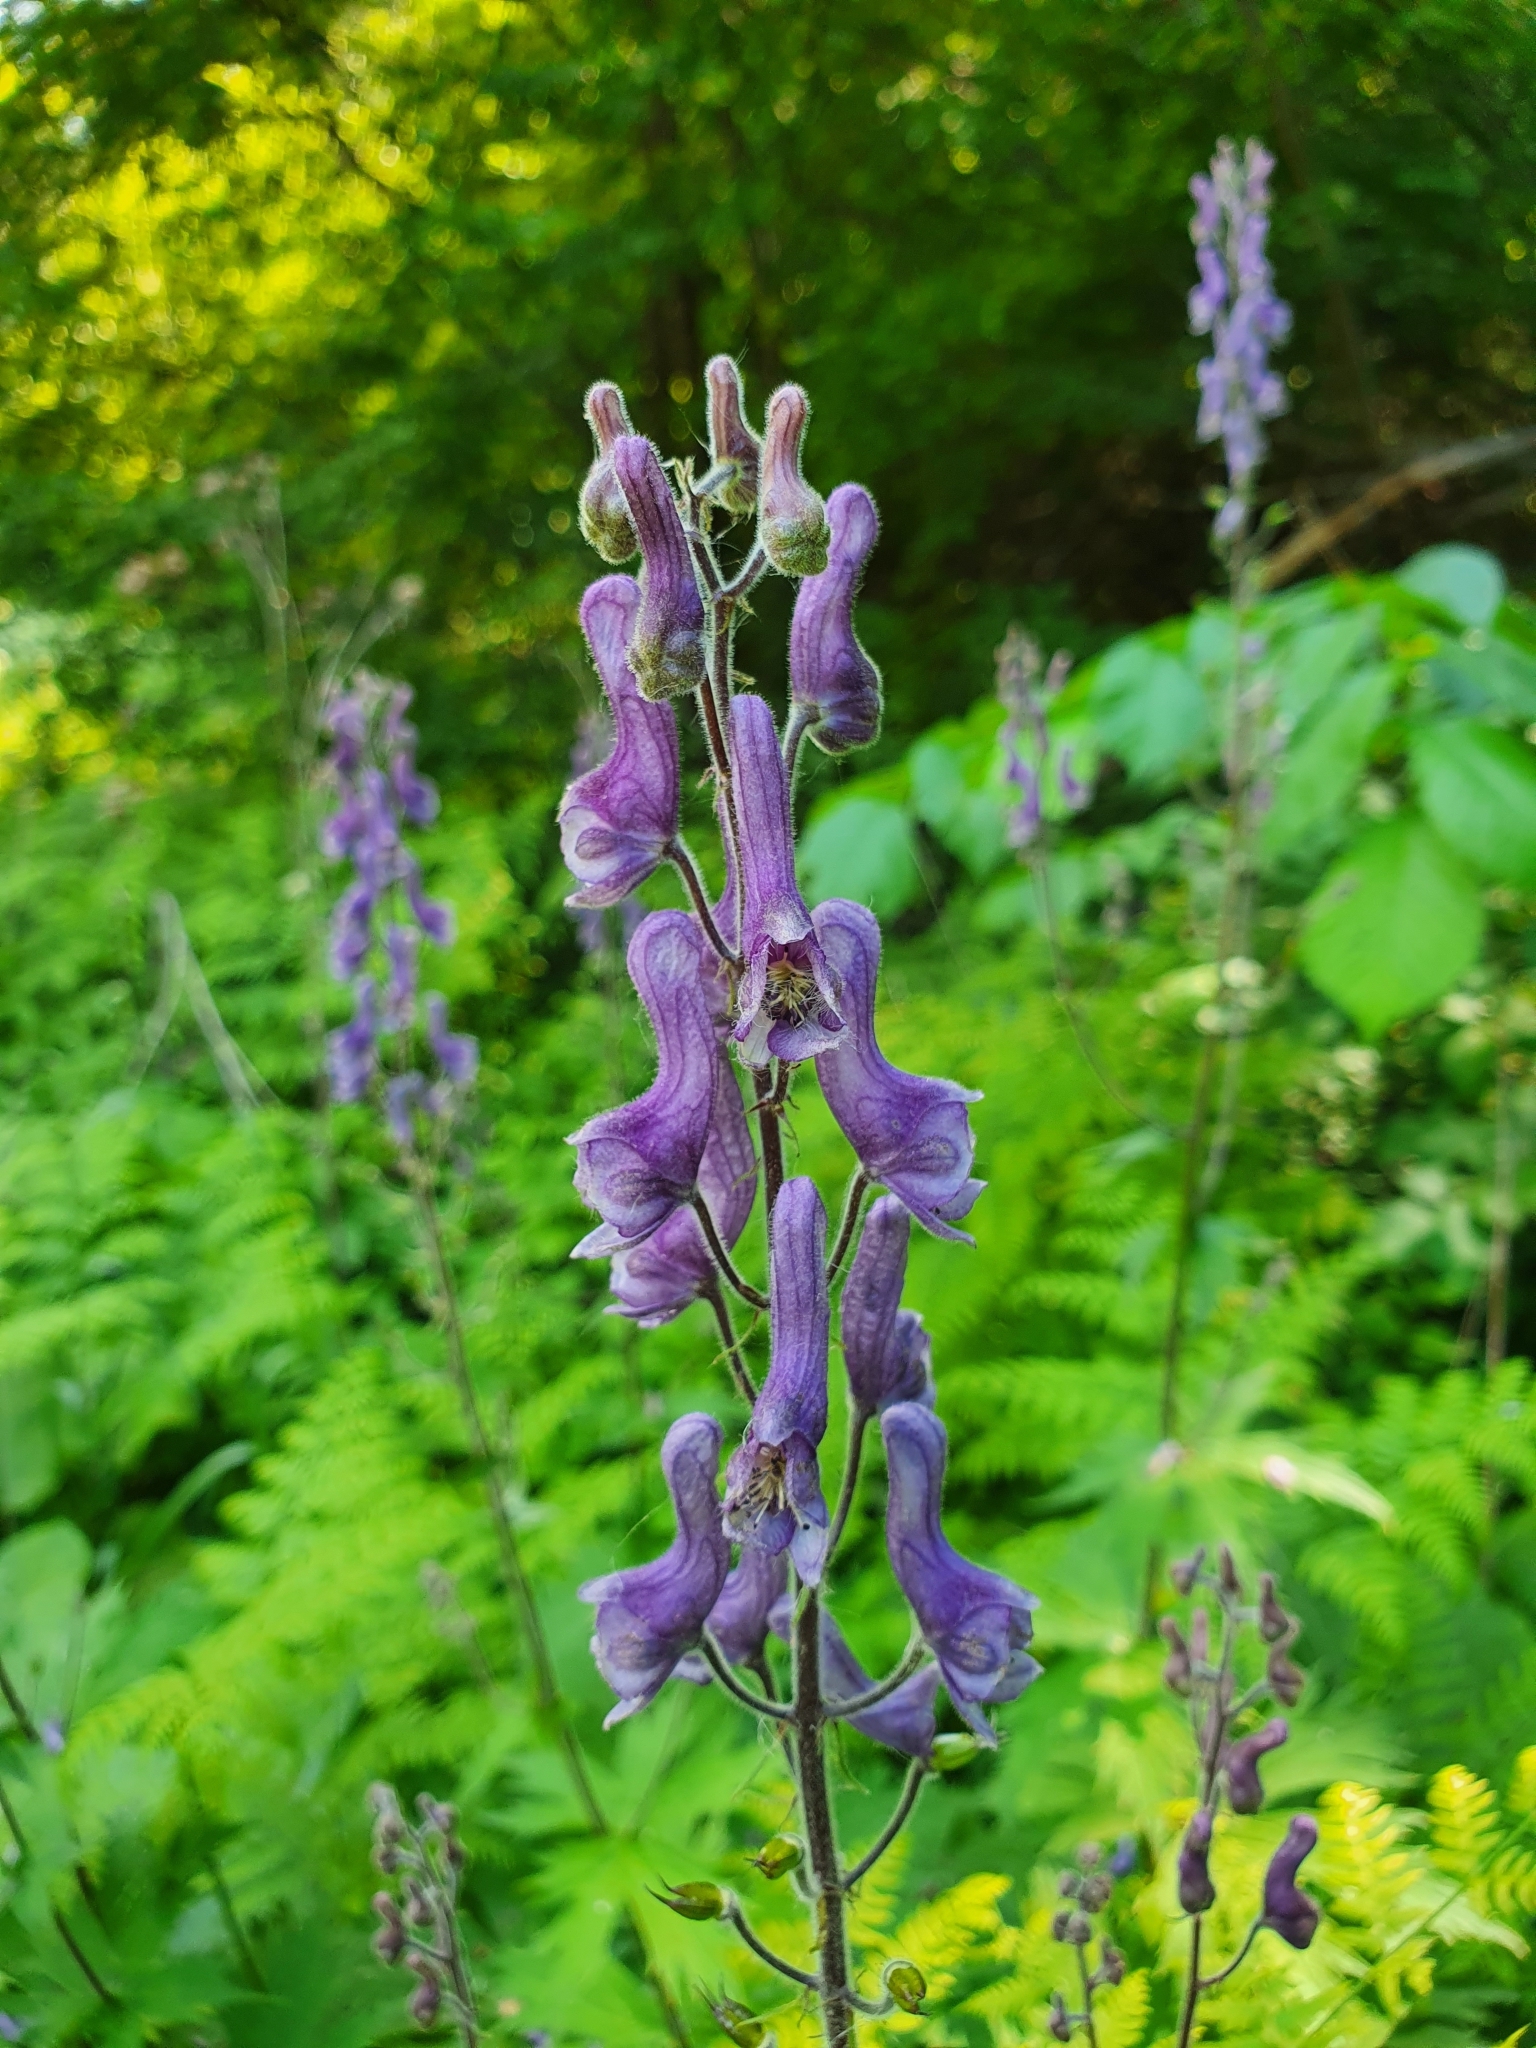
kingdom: Plantae
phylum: Tracheophyta
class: Magnoliopsida
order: Ranunculales
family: Ranunculaceae
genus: Aconitum
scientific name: Aconitum septentrionale
